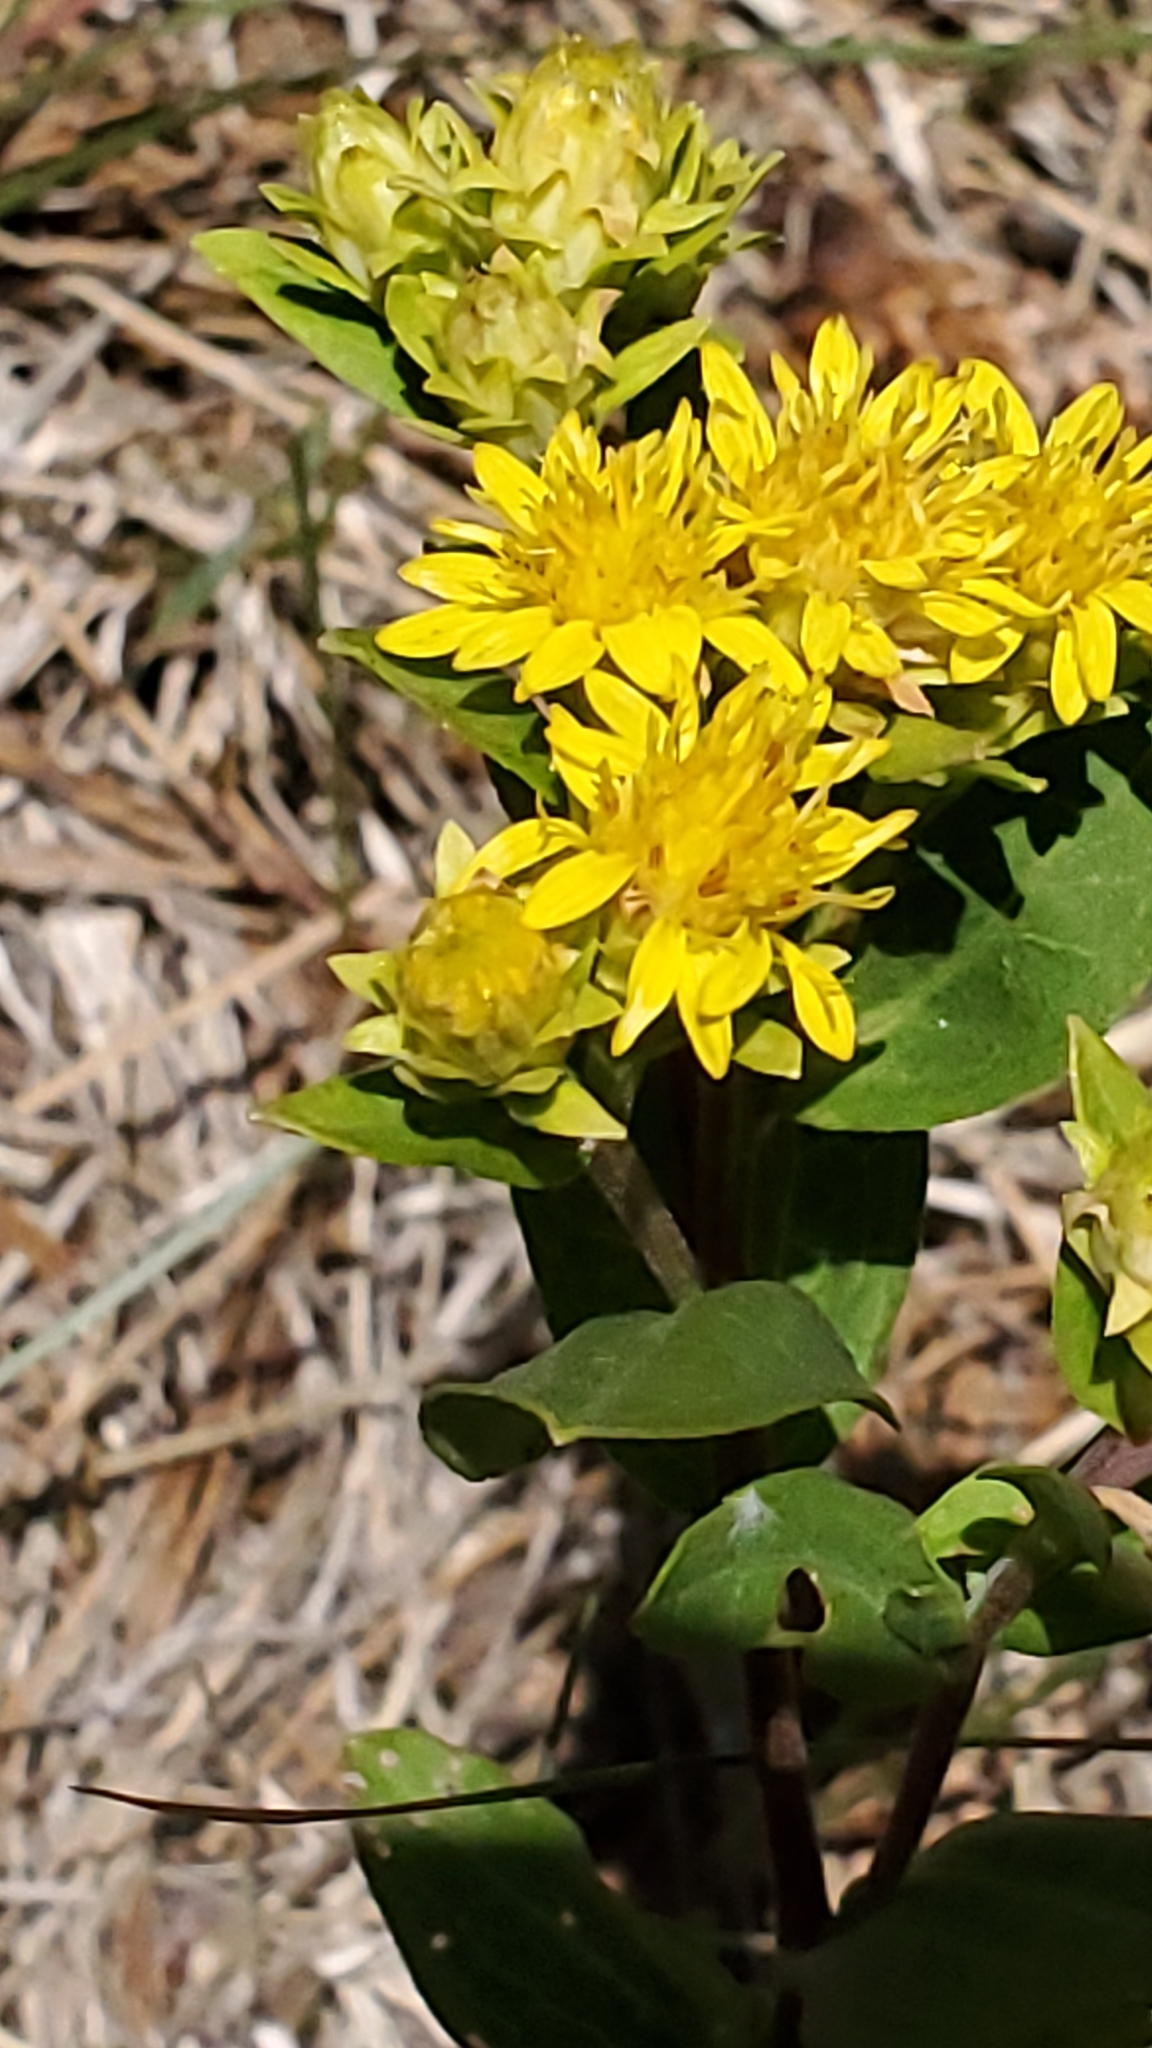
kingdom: Plantae
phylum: Tracheophyta
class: Magnoliopsida
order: Asterales
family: Asteraceae
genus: Oreochrysum
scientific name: Oreochrysum parryi
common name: Parry's goldenweed
